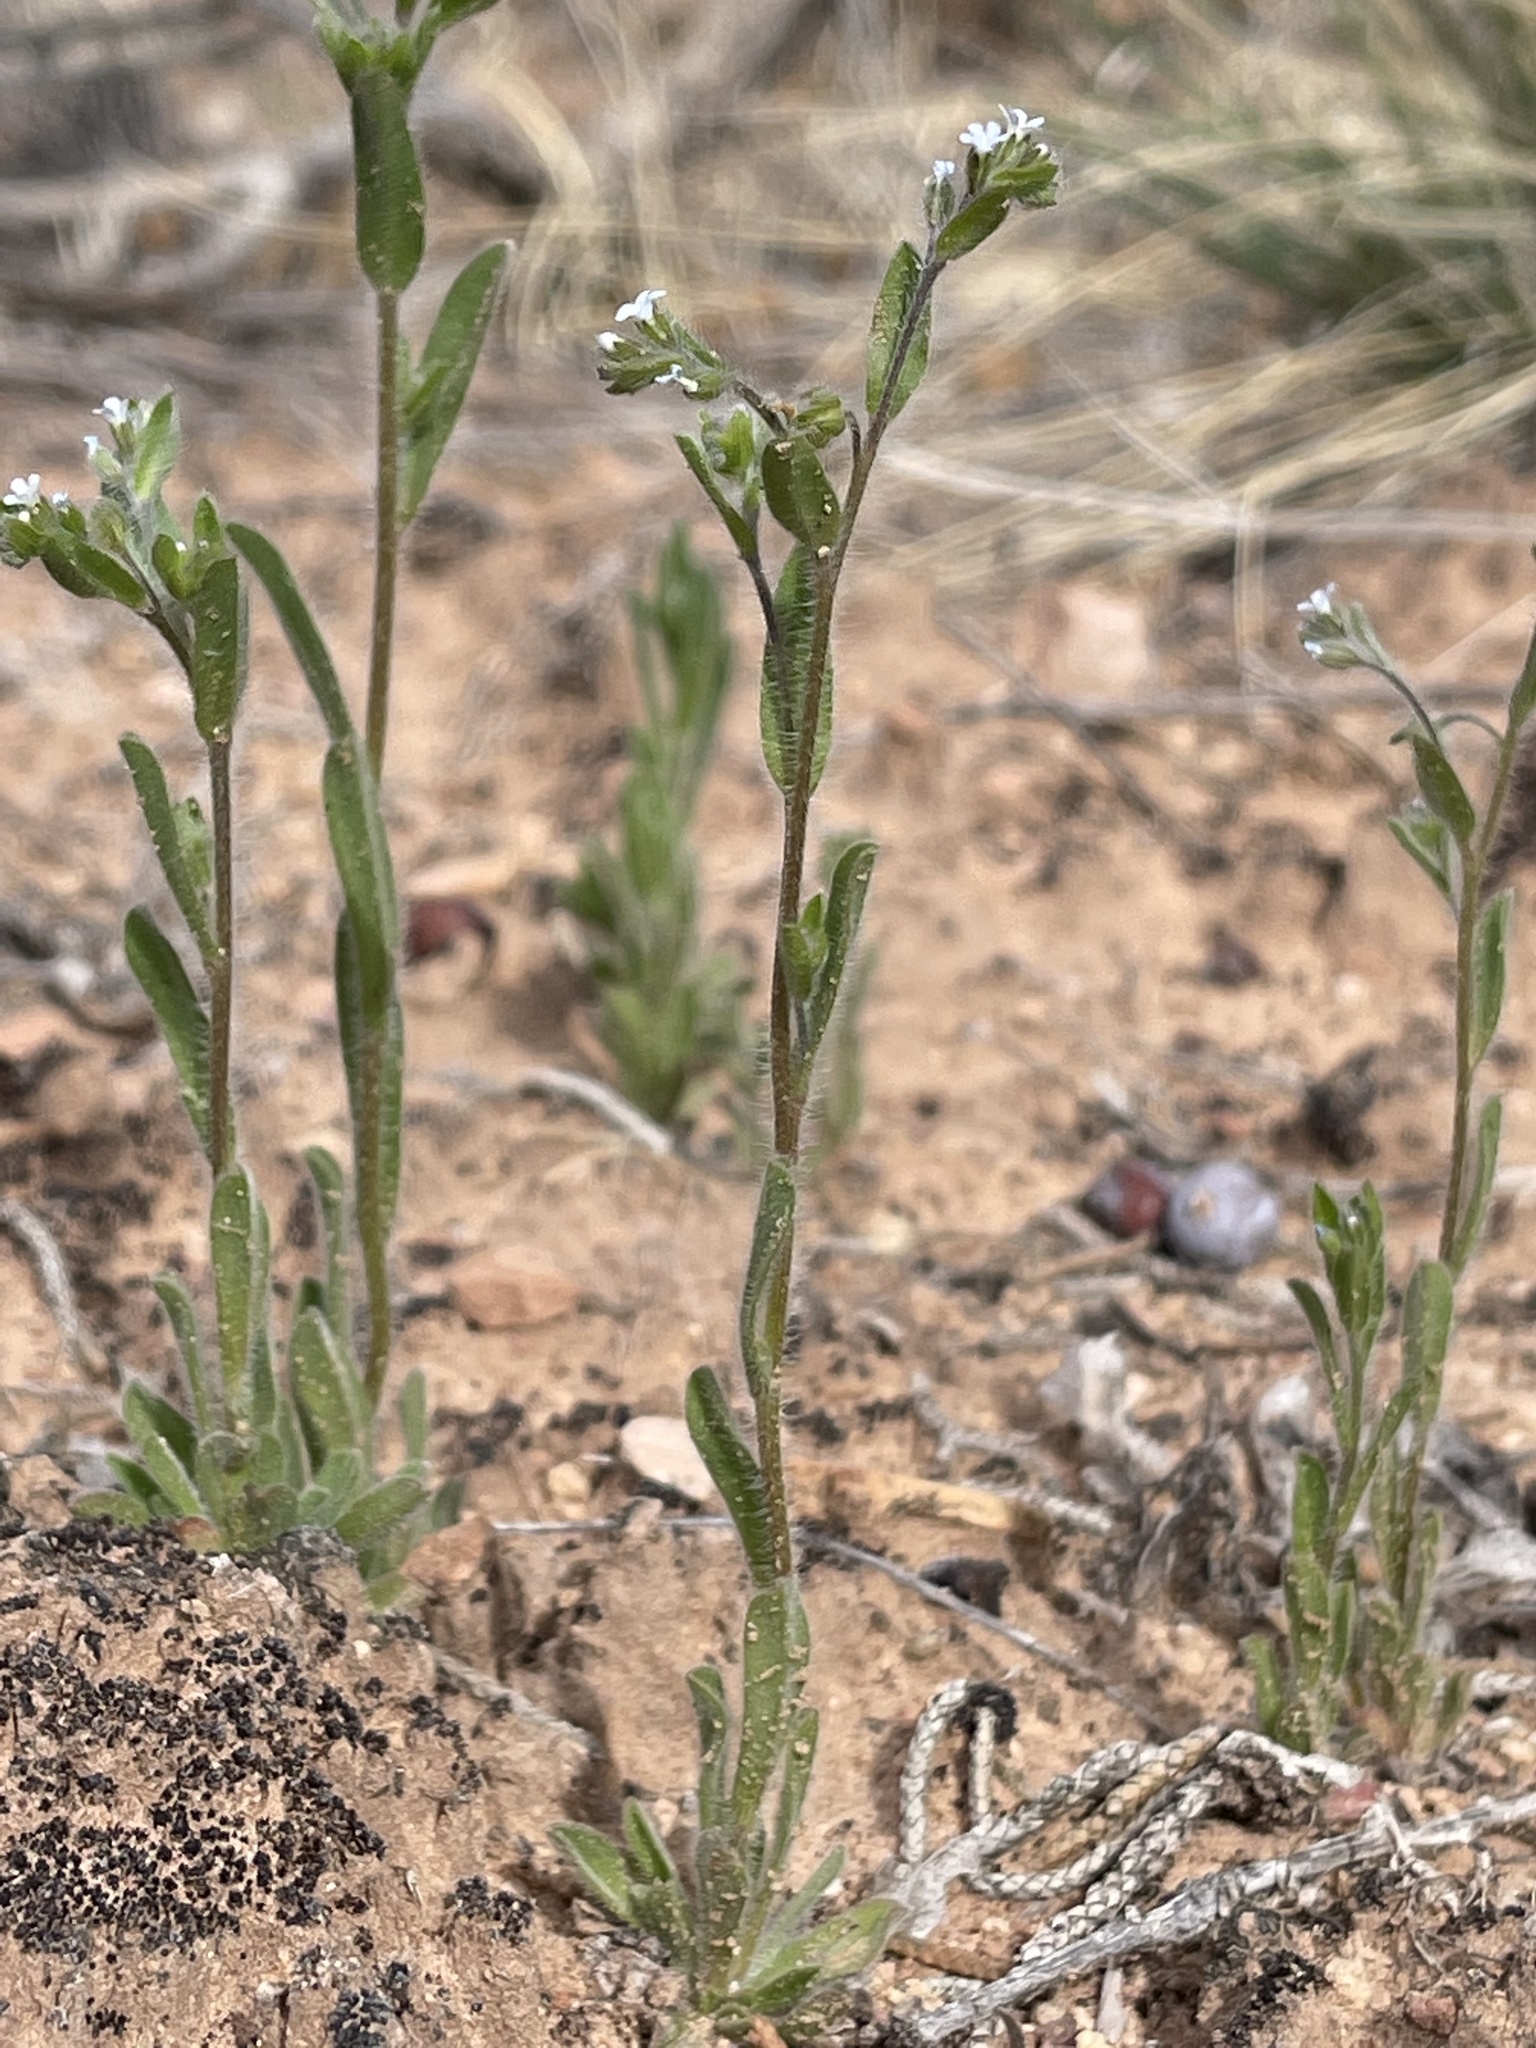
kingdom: Plantae
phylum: Tracheophyta
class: Magnoliopsida
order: Boraginales
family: Boraginaceae
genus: Lappula
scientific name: Lappula occidentalis
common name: Western stickseed
